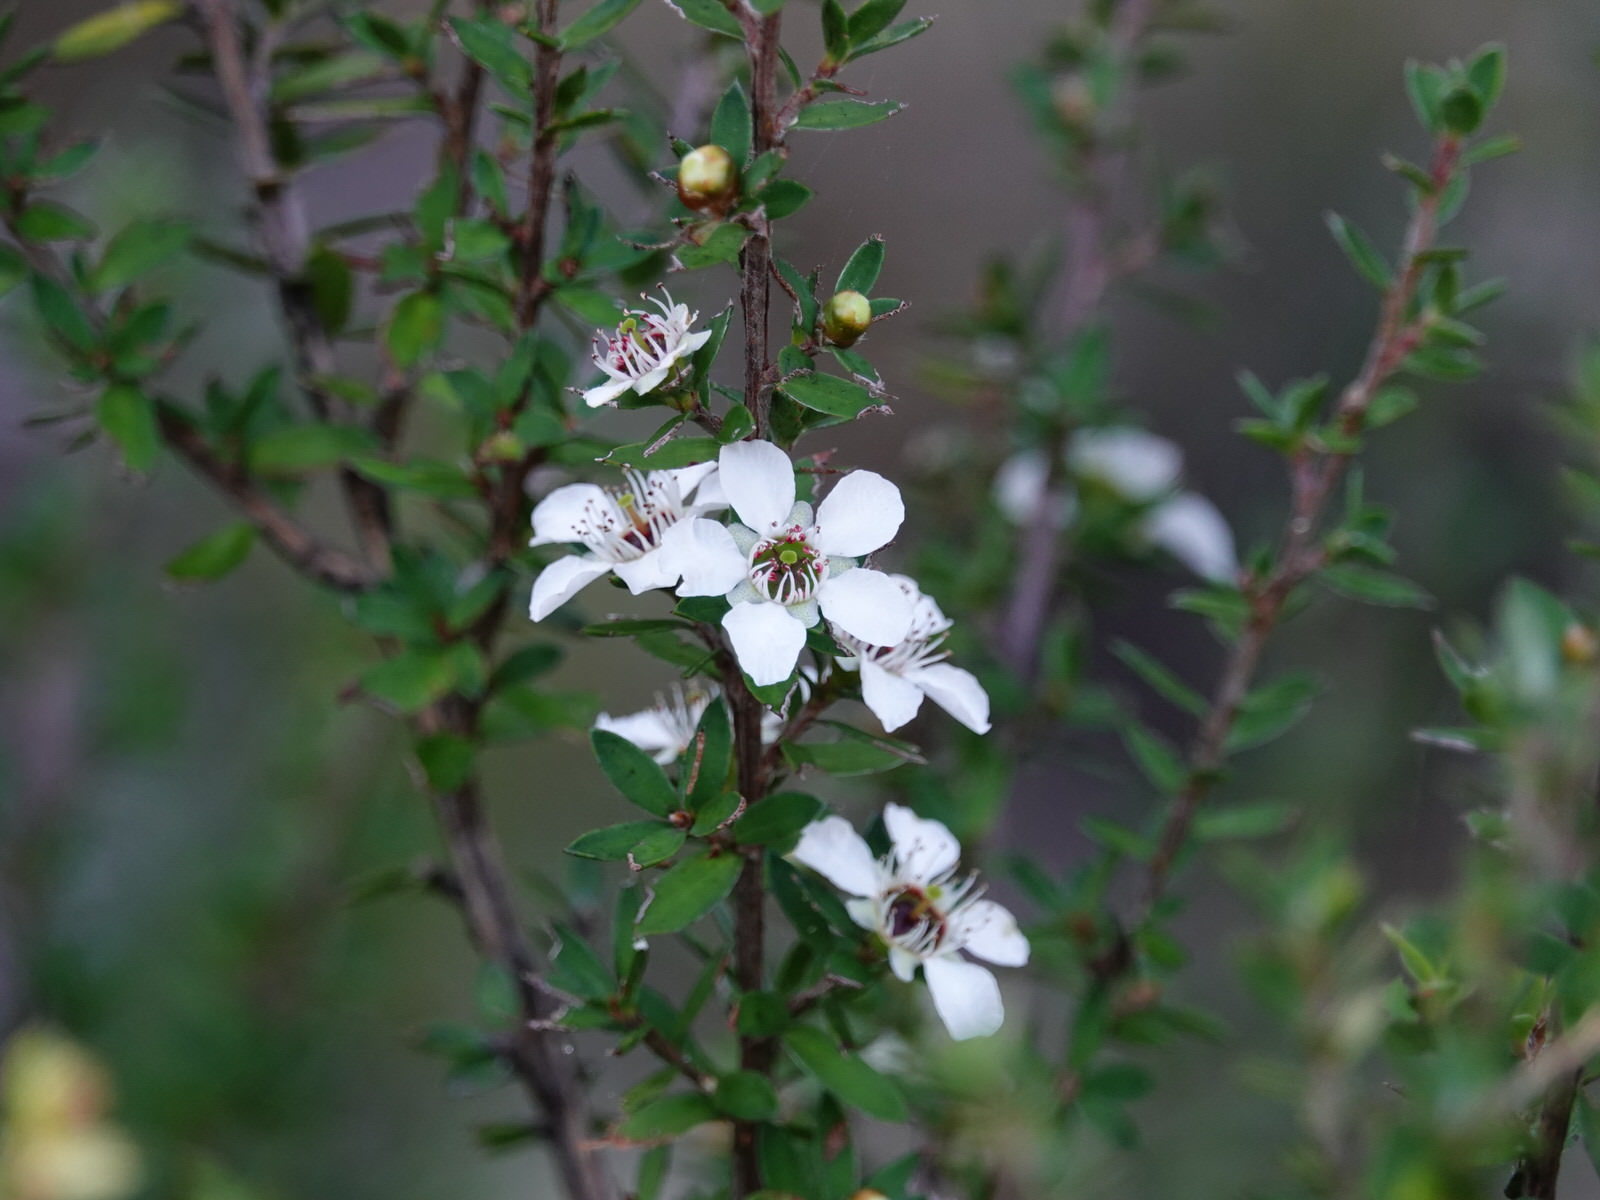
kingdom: Plantae
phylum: Tracheophyta
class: Magnoliopsida
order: Myrtales
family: Myrtaceae
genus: Leptospermum
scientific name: Leptospermum scoparium
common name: Broom tea-tree
